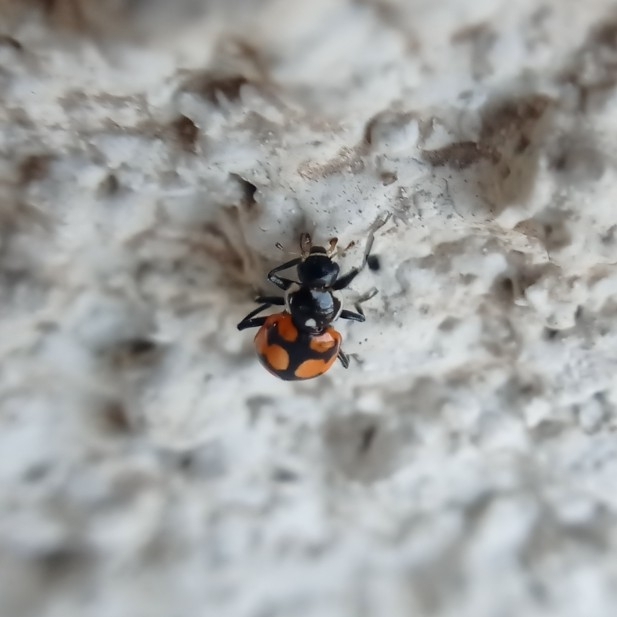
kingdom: Animalia
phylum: Arthropoda
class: Insecta
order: Coleoptera
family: Coccinellidae
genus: Eriopis
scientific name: Eriopis chilensis
